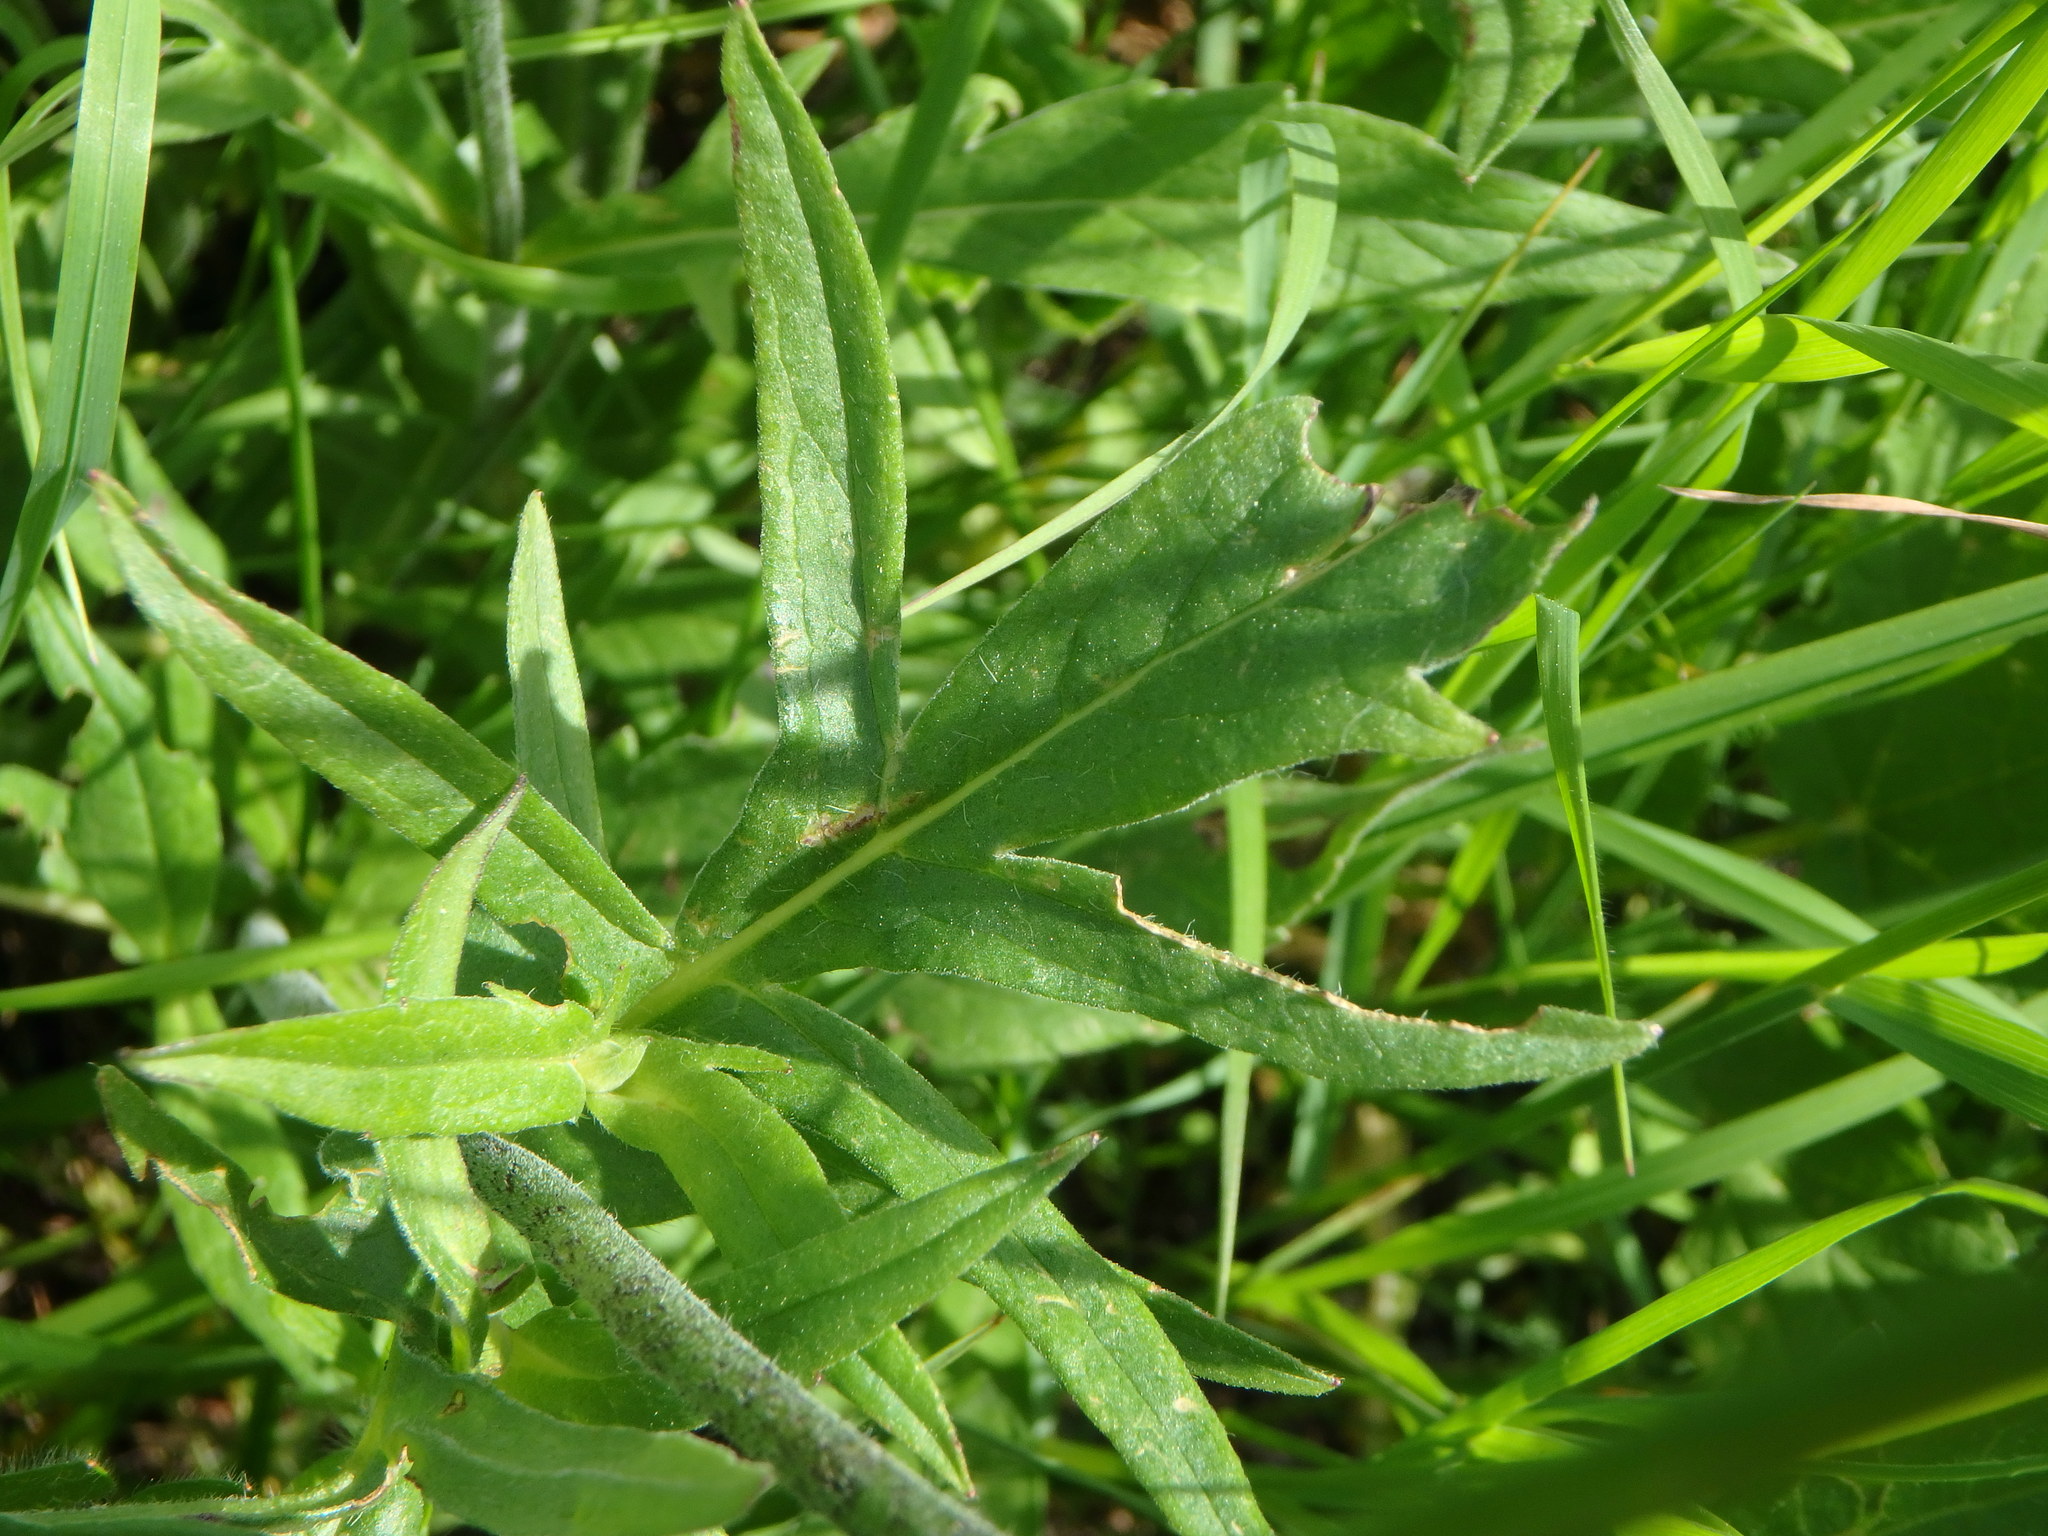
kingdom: Plantae
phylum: Tracheophyta
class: Magnoliopsida
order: Dipsacales
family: Caprifoliaceae
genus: Knautia
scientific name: Knautia arvensis
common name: Field scabiosa
